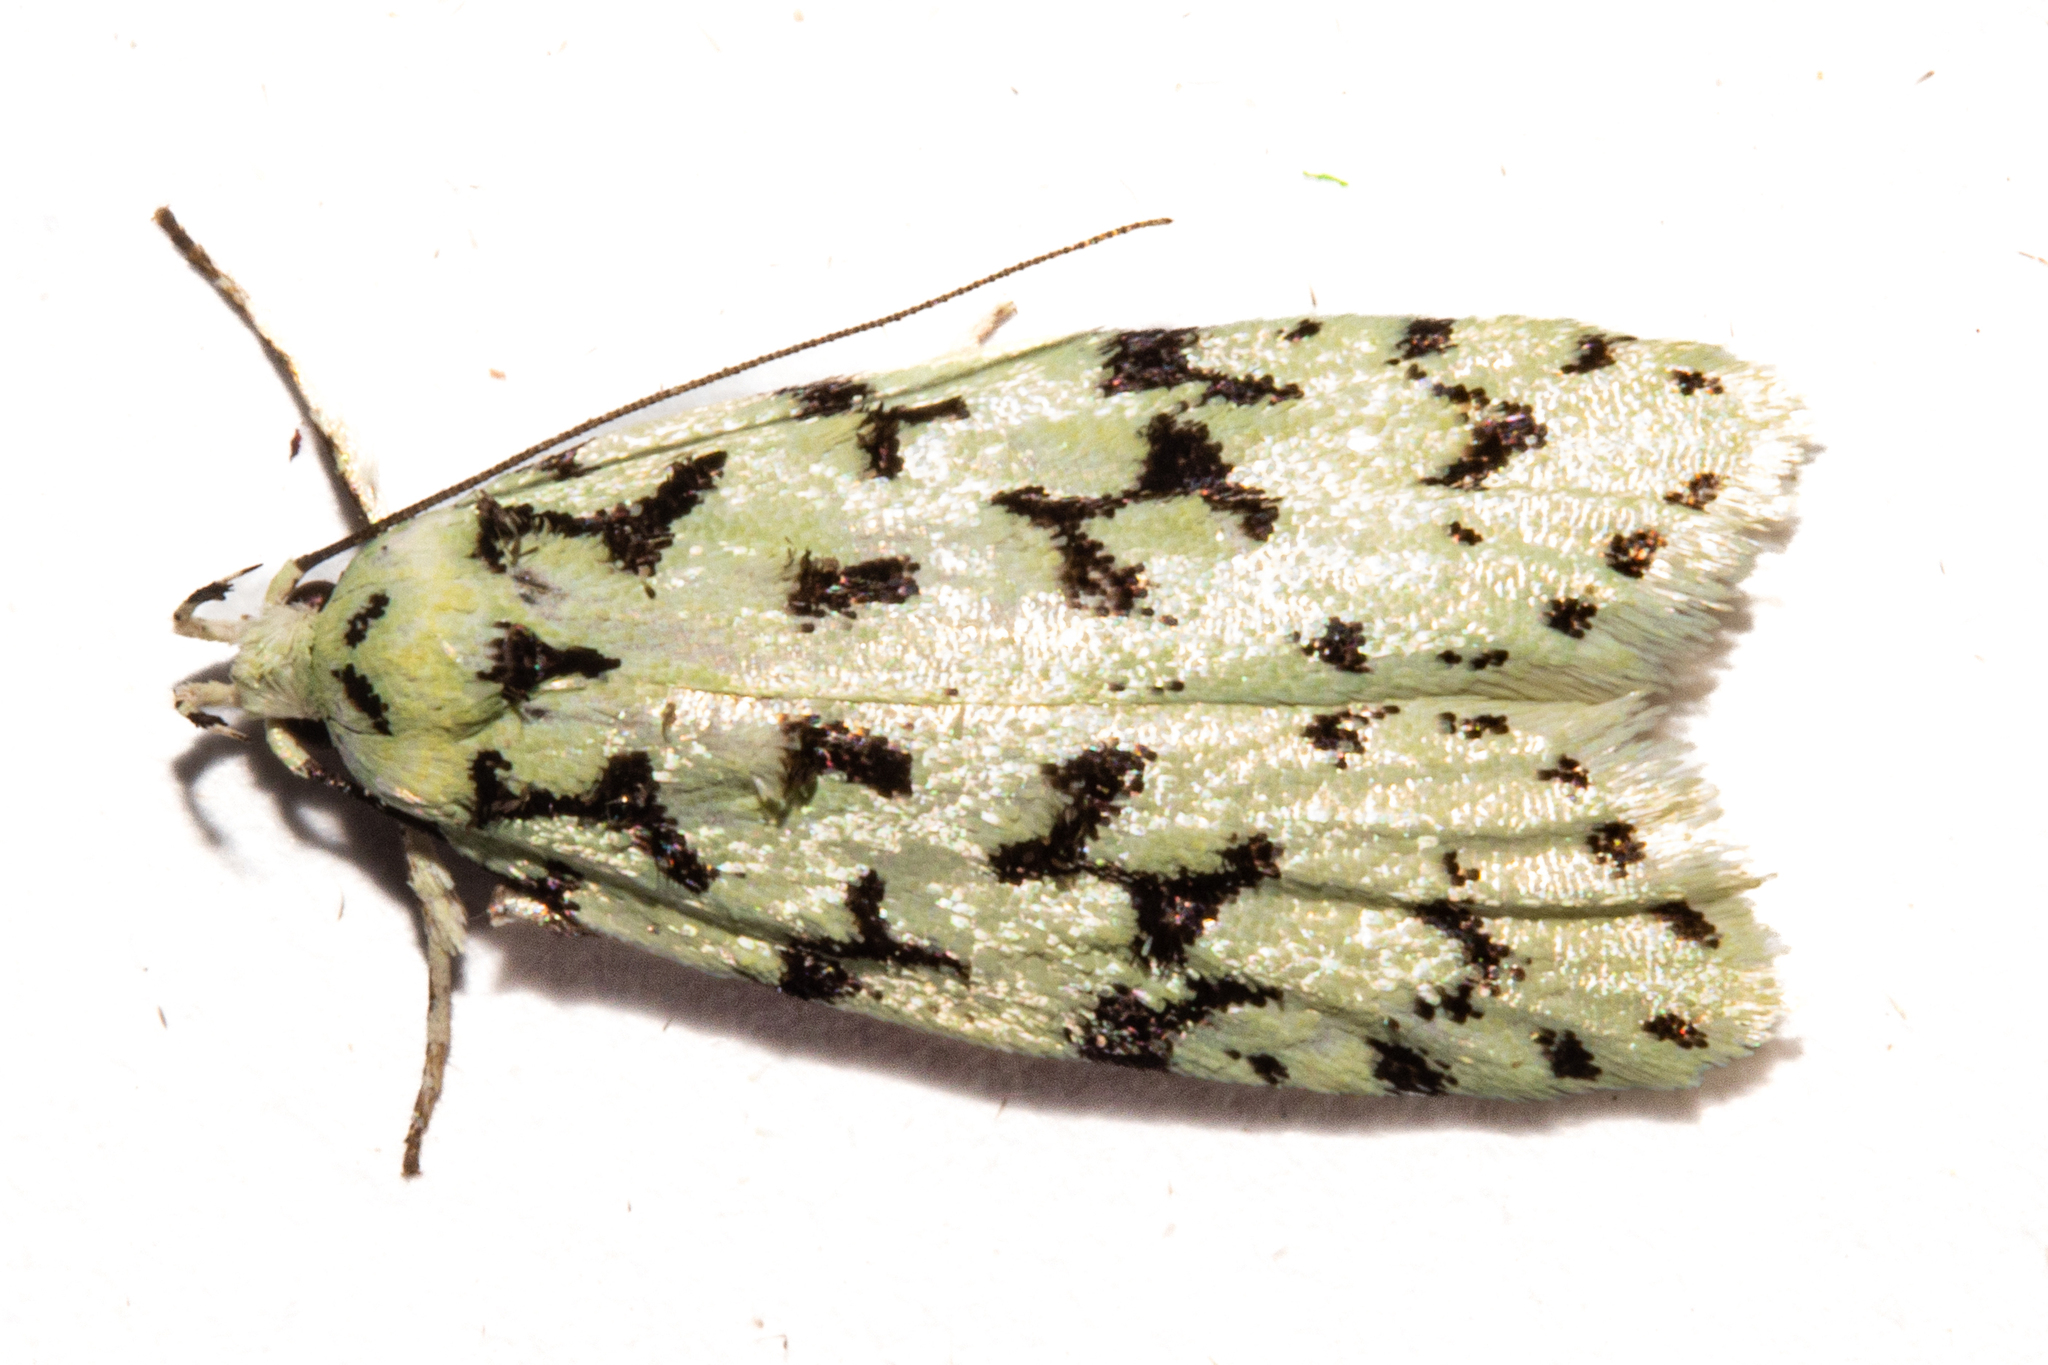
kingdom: Animalia
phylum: Arthropoda
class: Insecta
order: Lepidoptera
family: Oecophoridae
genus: Izatha
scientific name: Izatha huttoni
